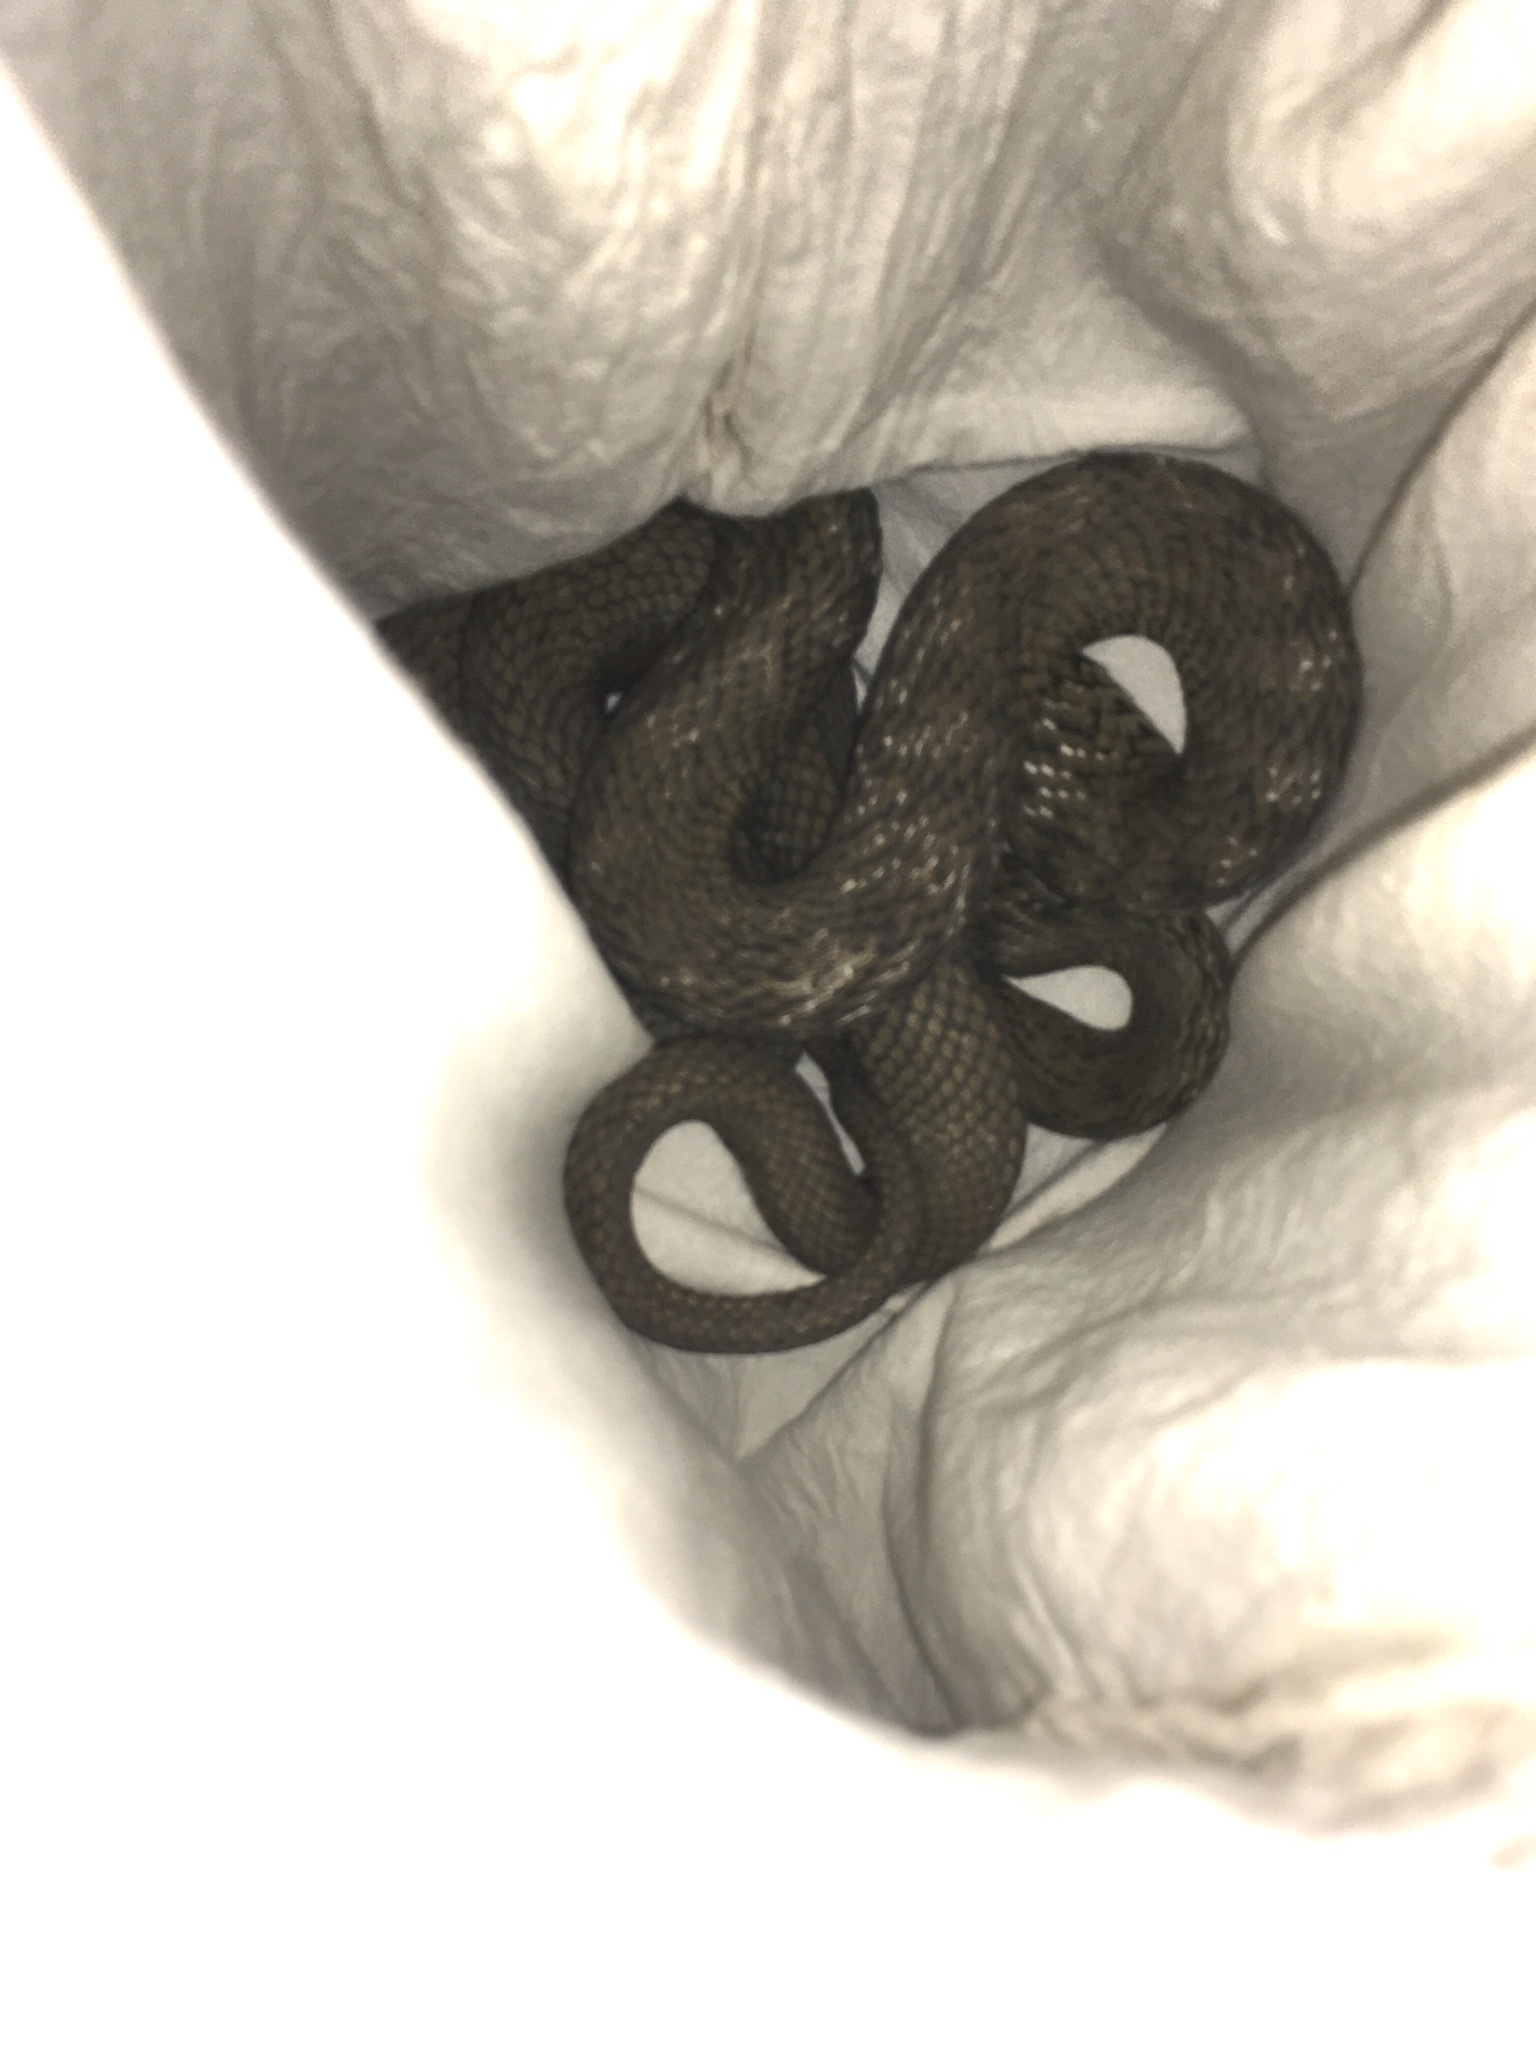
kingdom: Animalia
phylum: Chordata
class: Squamata
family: Colubridae
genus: Elaphe
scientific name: Elaphe carinata
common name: Taiwan stink snake
